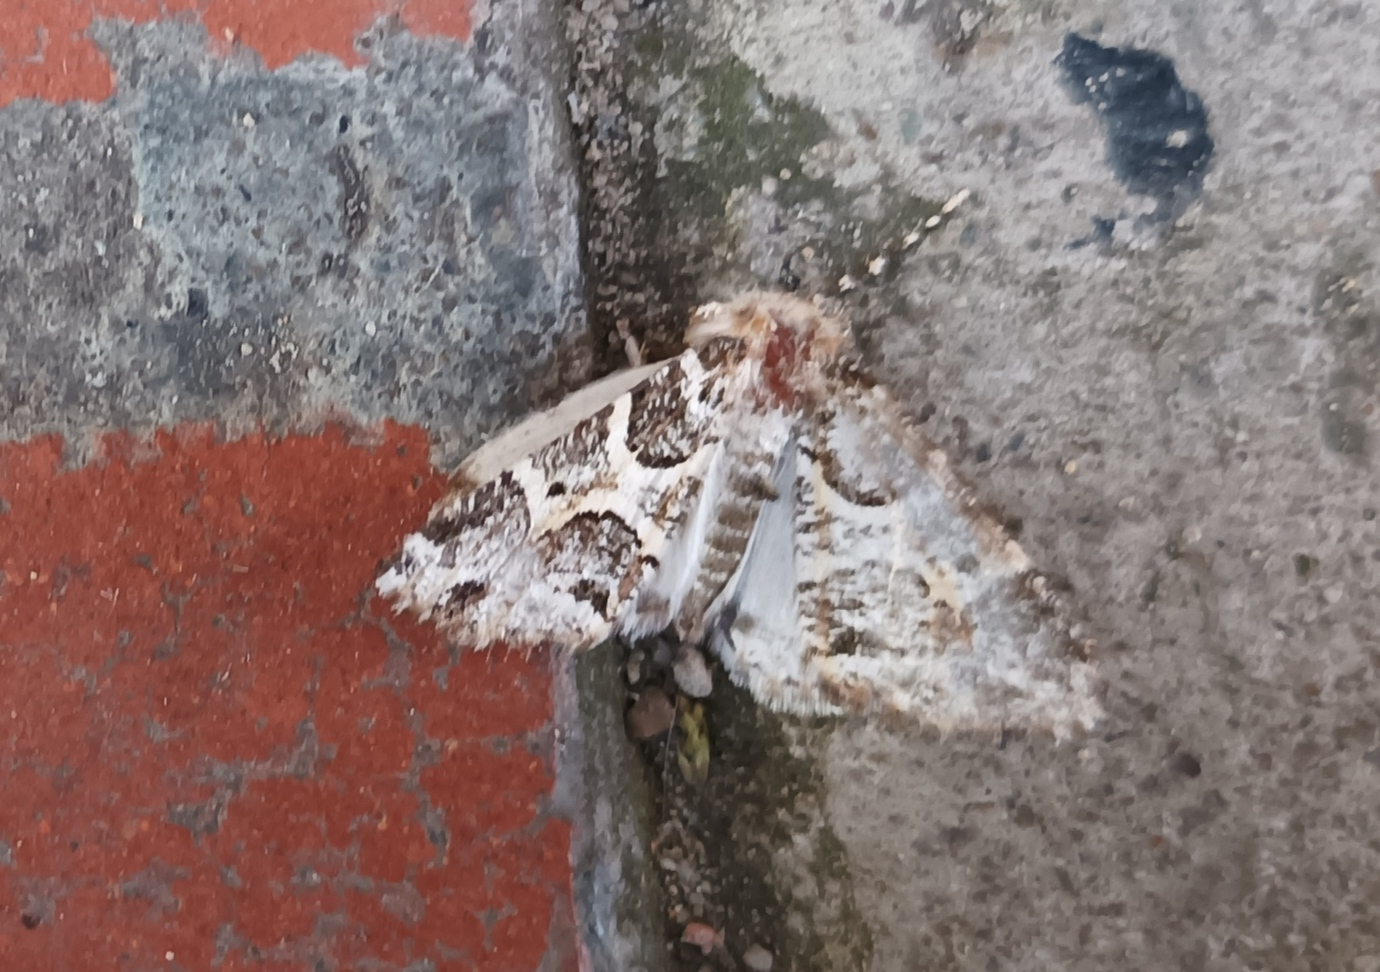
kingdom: Animalia
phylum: Arthropoda
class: Insecta
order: Lepidoptera
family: Geometridae
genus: Cargolia
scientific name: Cargolia arana
